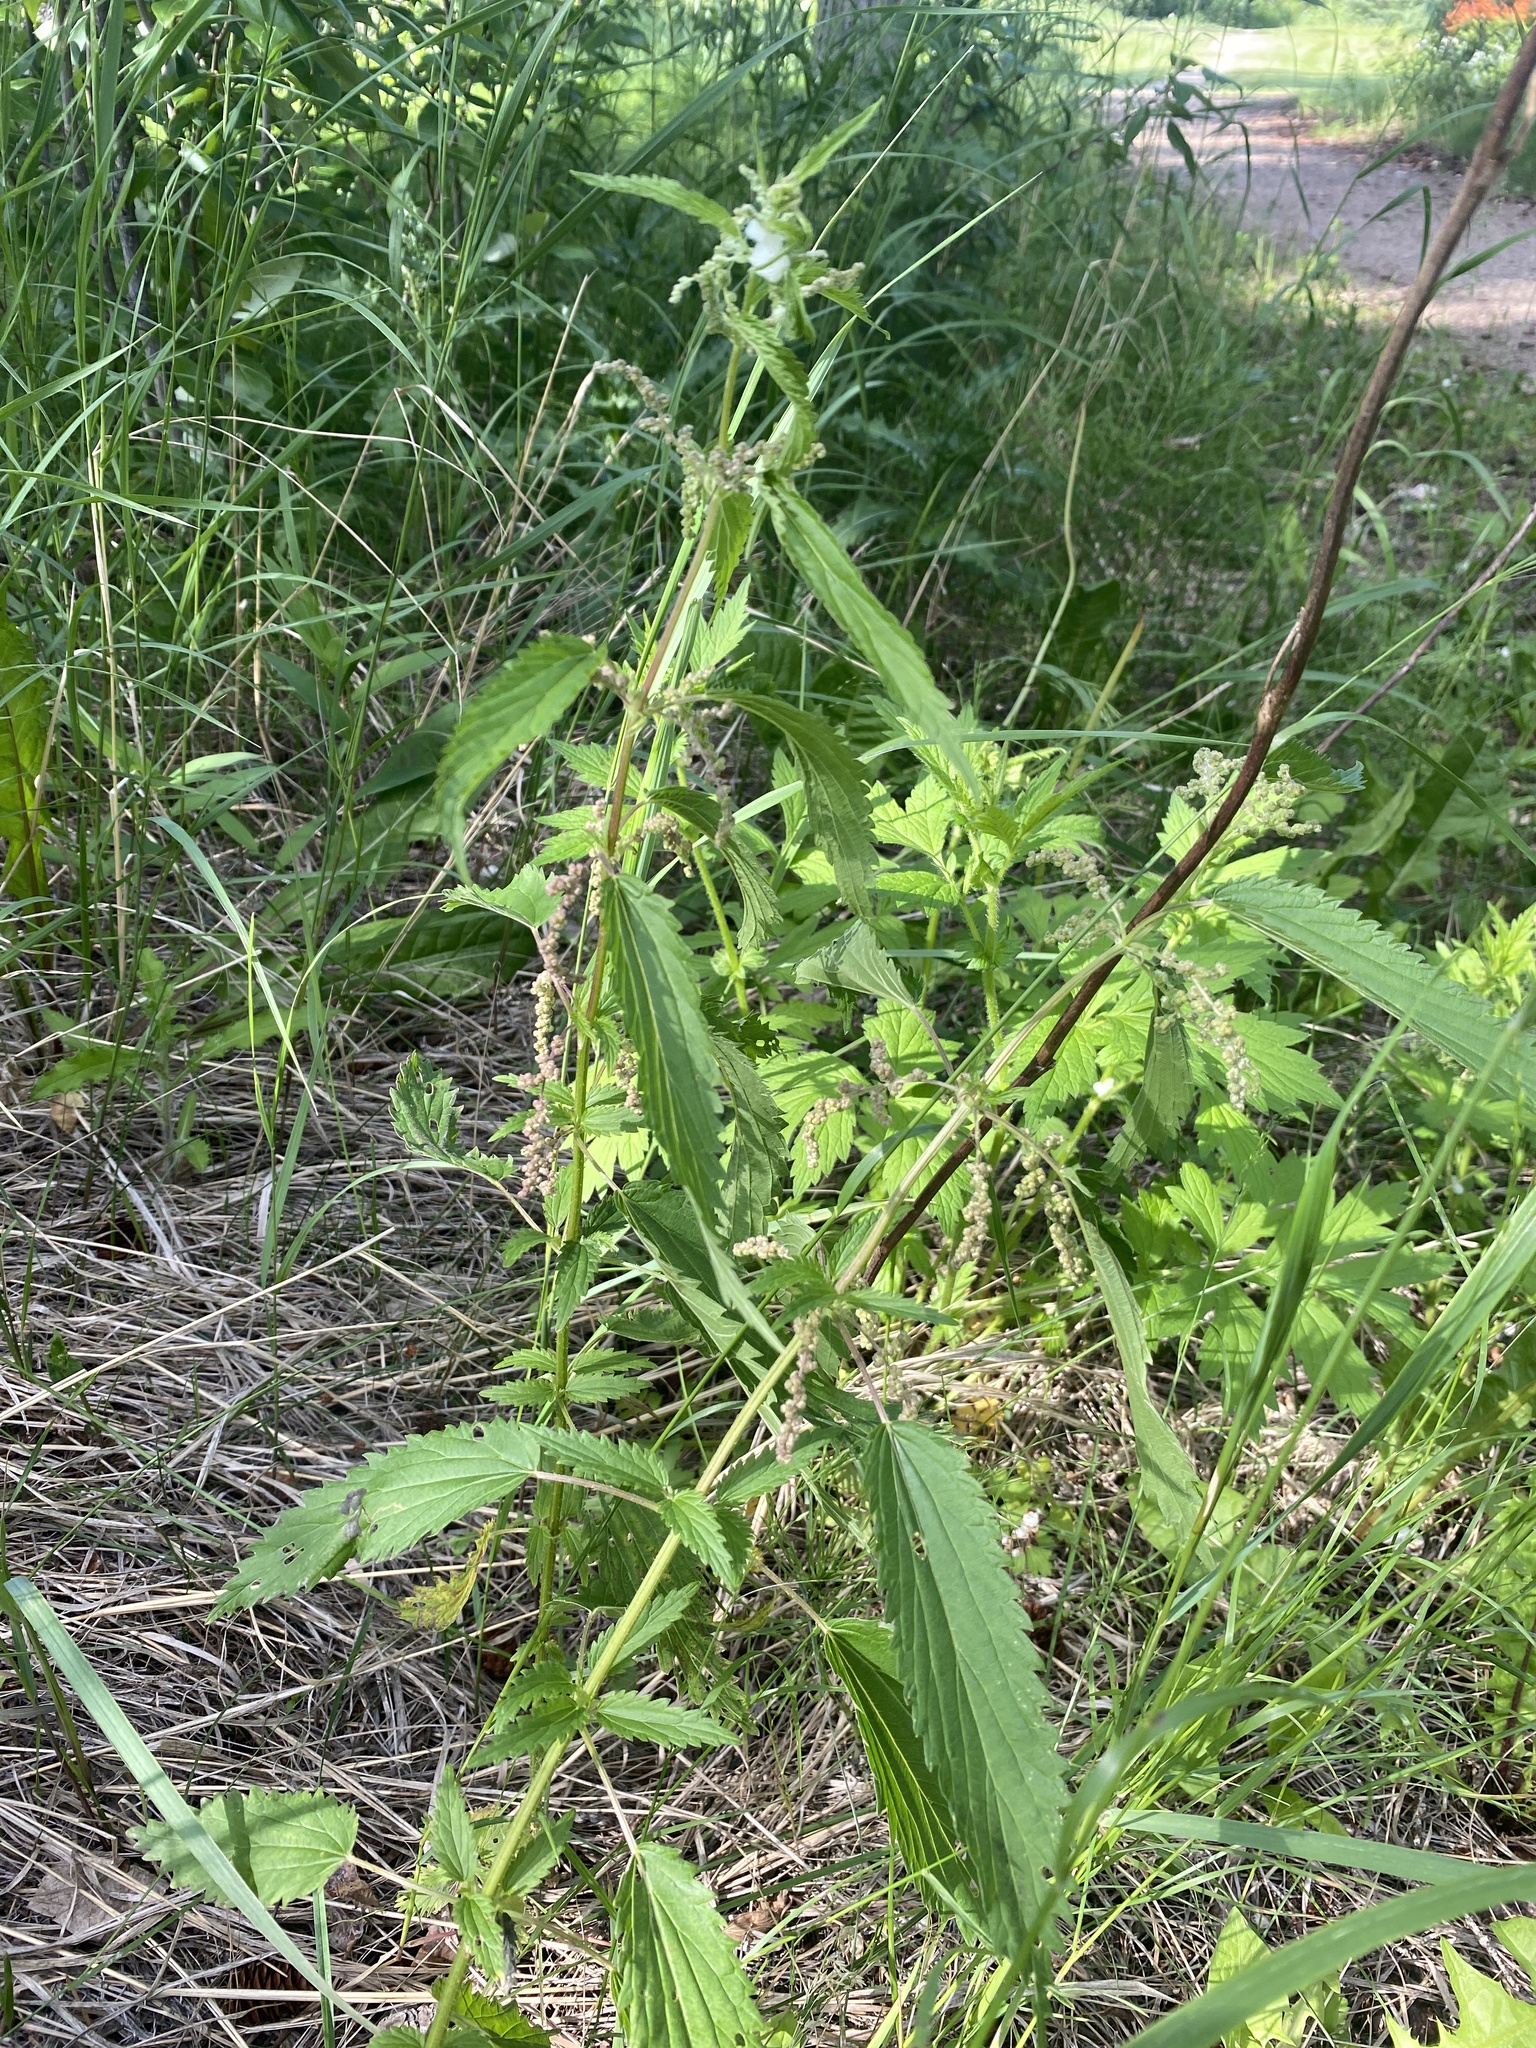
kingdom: Plantae
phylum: Tracheophyta
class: Magnoliopsida
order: Rosales
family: Urticaceae
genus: Urtica
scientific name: Urtica gracilis
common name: Slender stinging nettle
